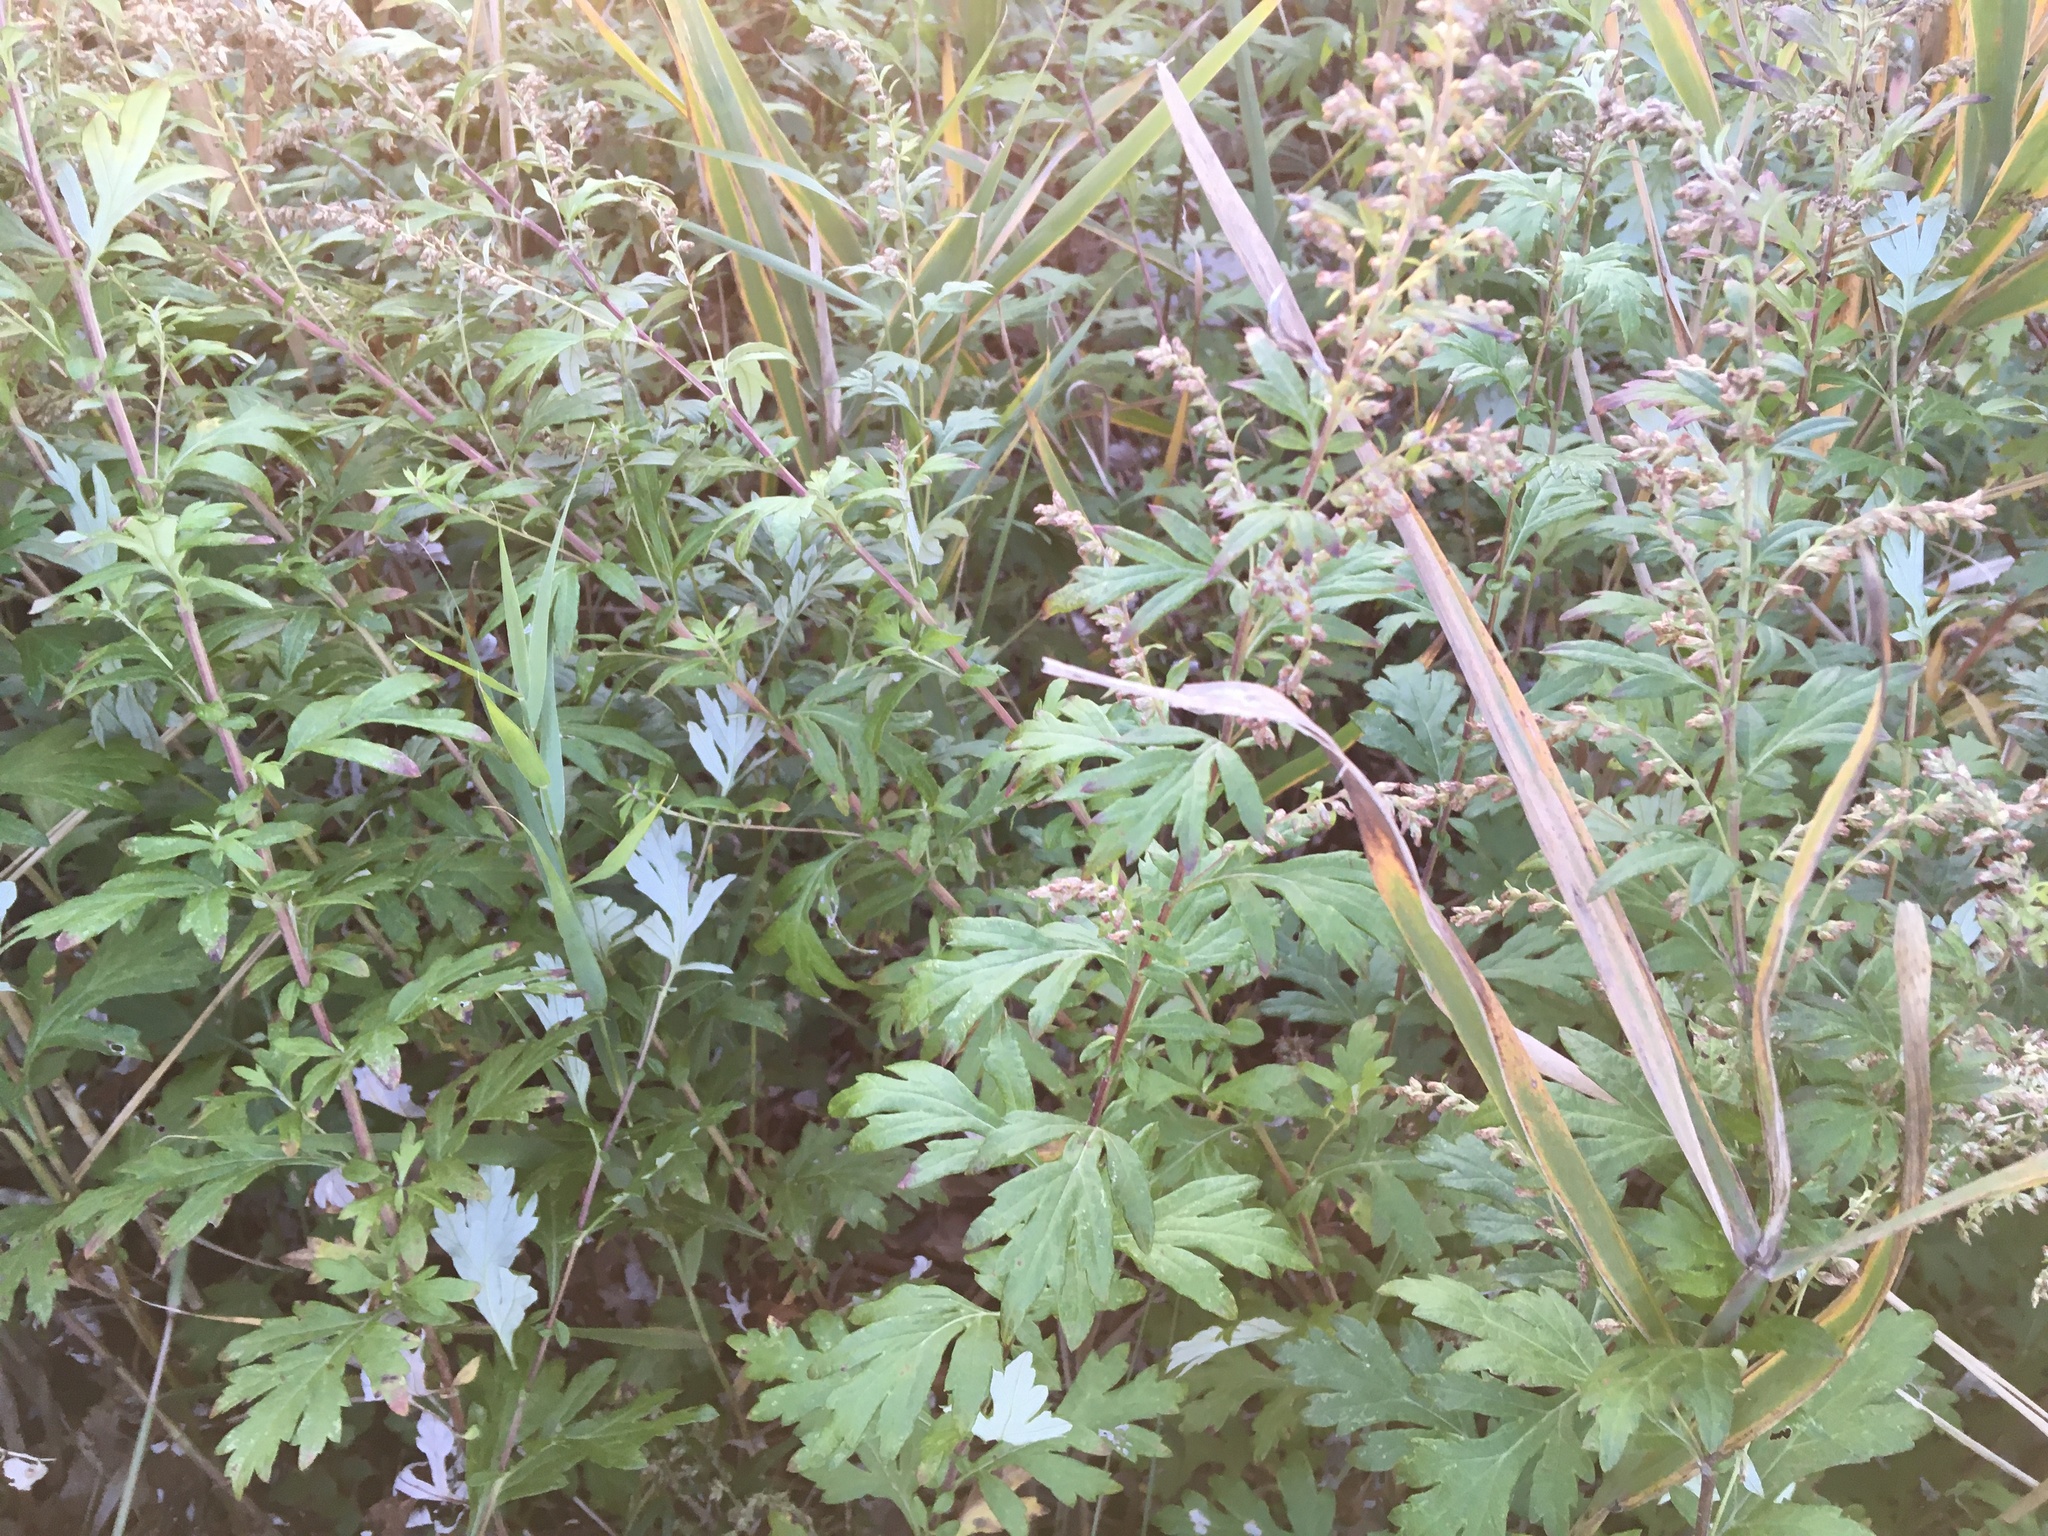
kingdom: Plantae
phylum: Tracheophyta
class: Magnoliopsida
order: Asterales
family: Asteraceae
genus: Artemisia
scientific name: Artemisia vulgaris
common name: Mugwort
